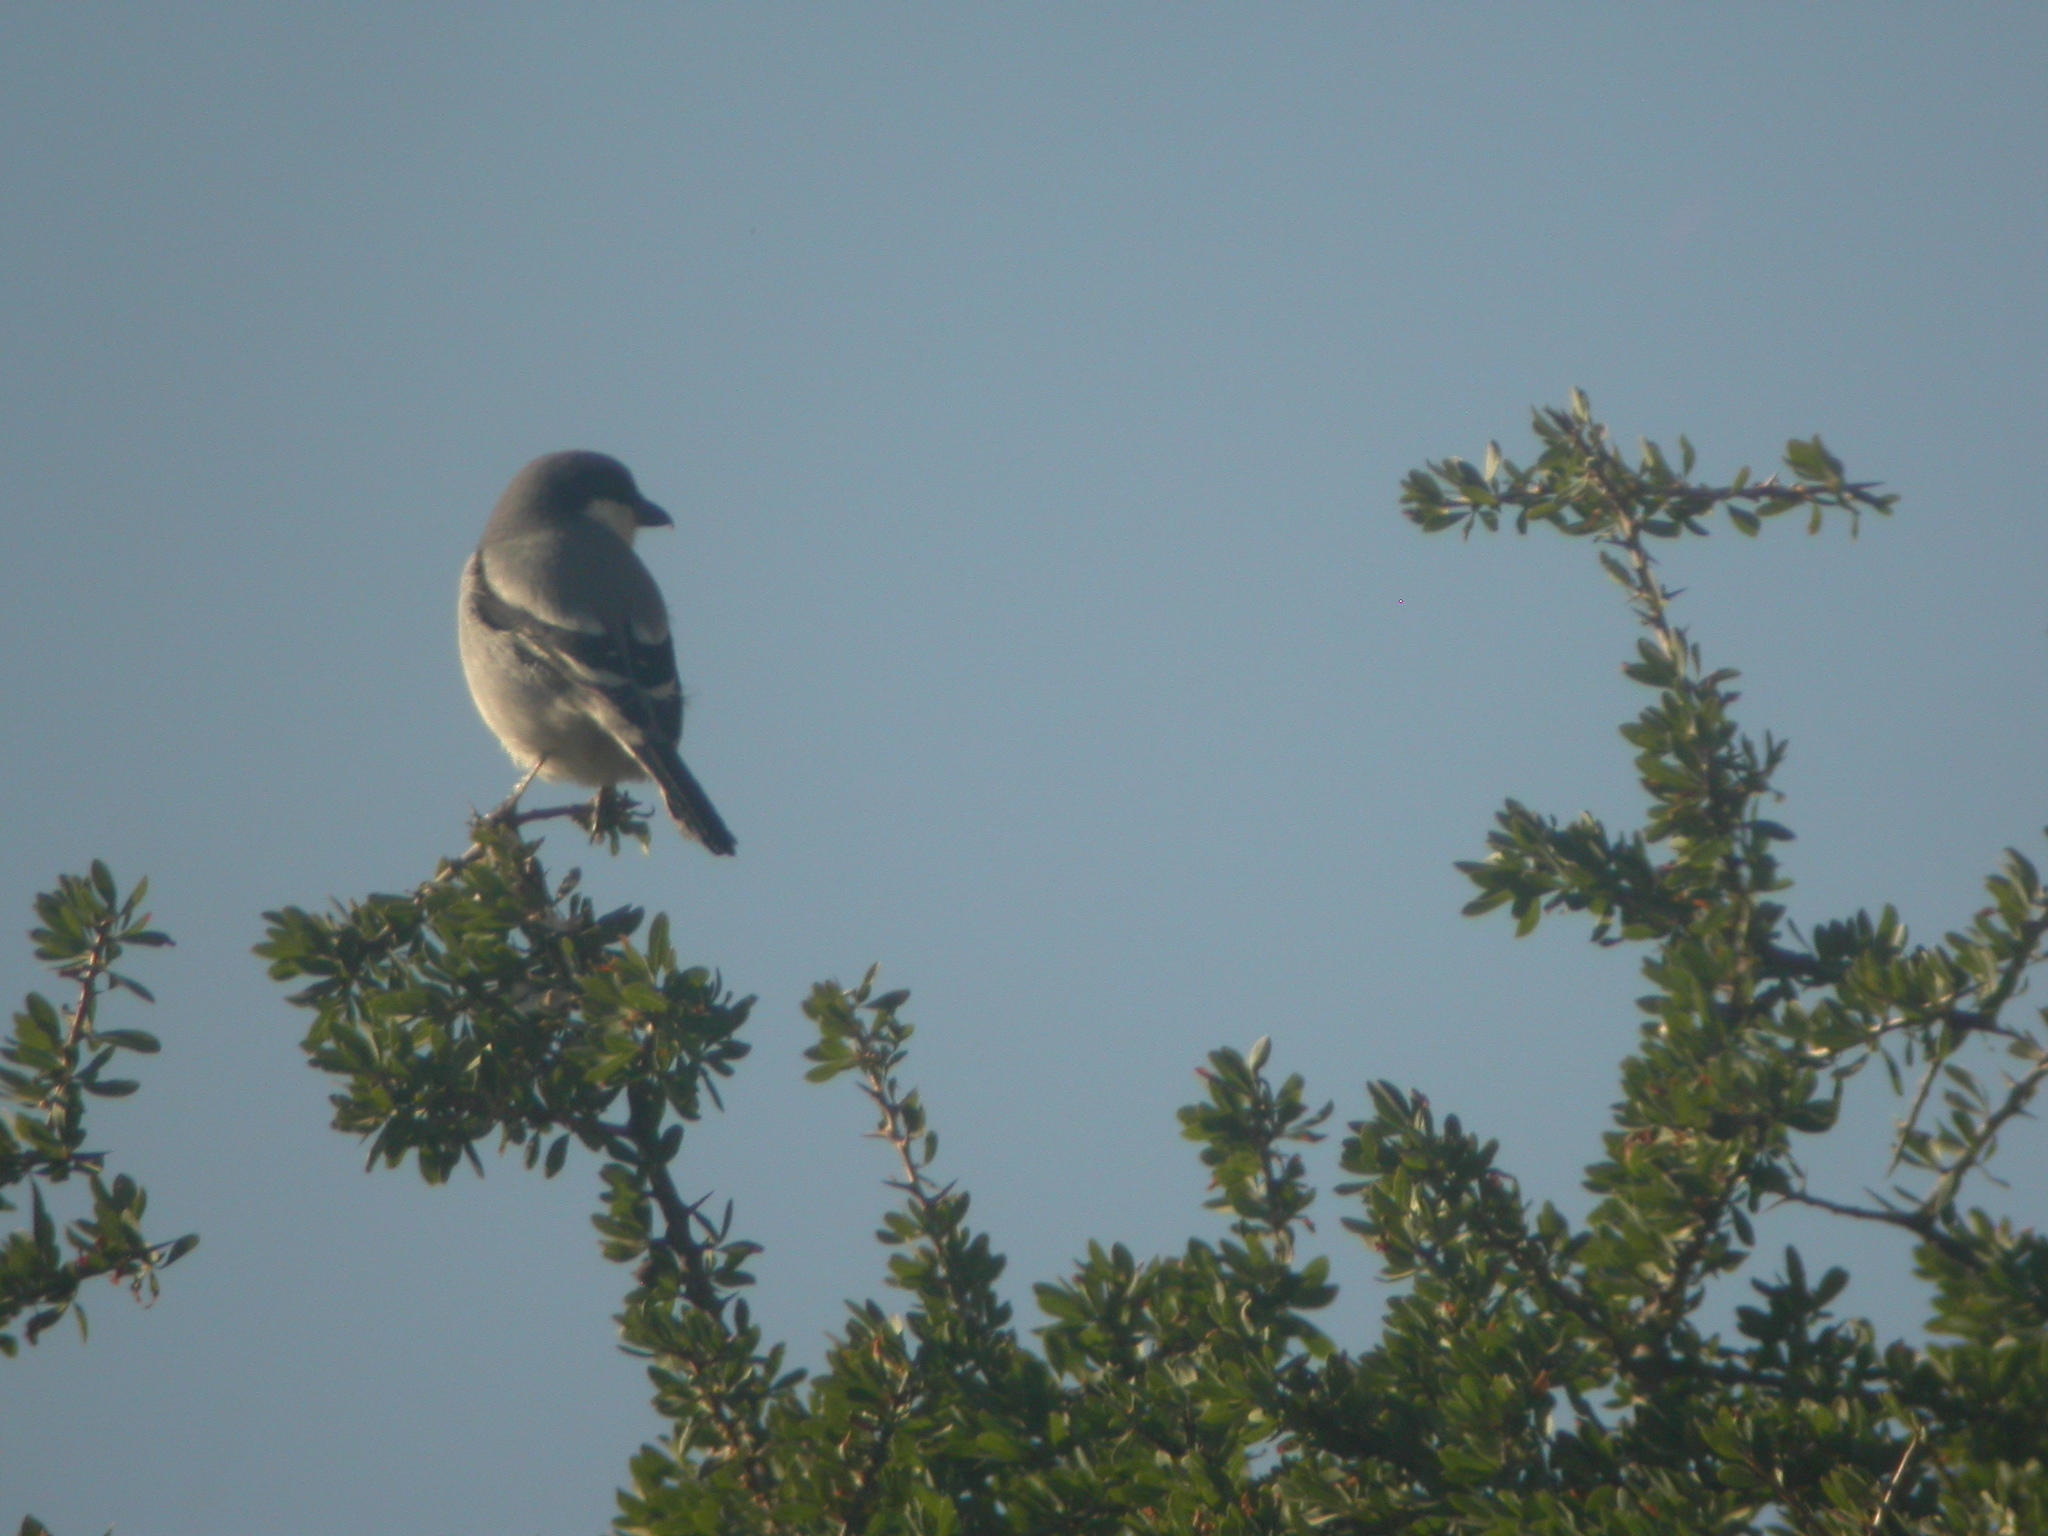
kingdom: Animalia
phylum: Chordata
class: Aves
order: Passeriformes
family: Laniidae
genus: Lanius
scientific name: Lanius excubitor
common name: Great grey shrike
